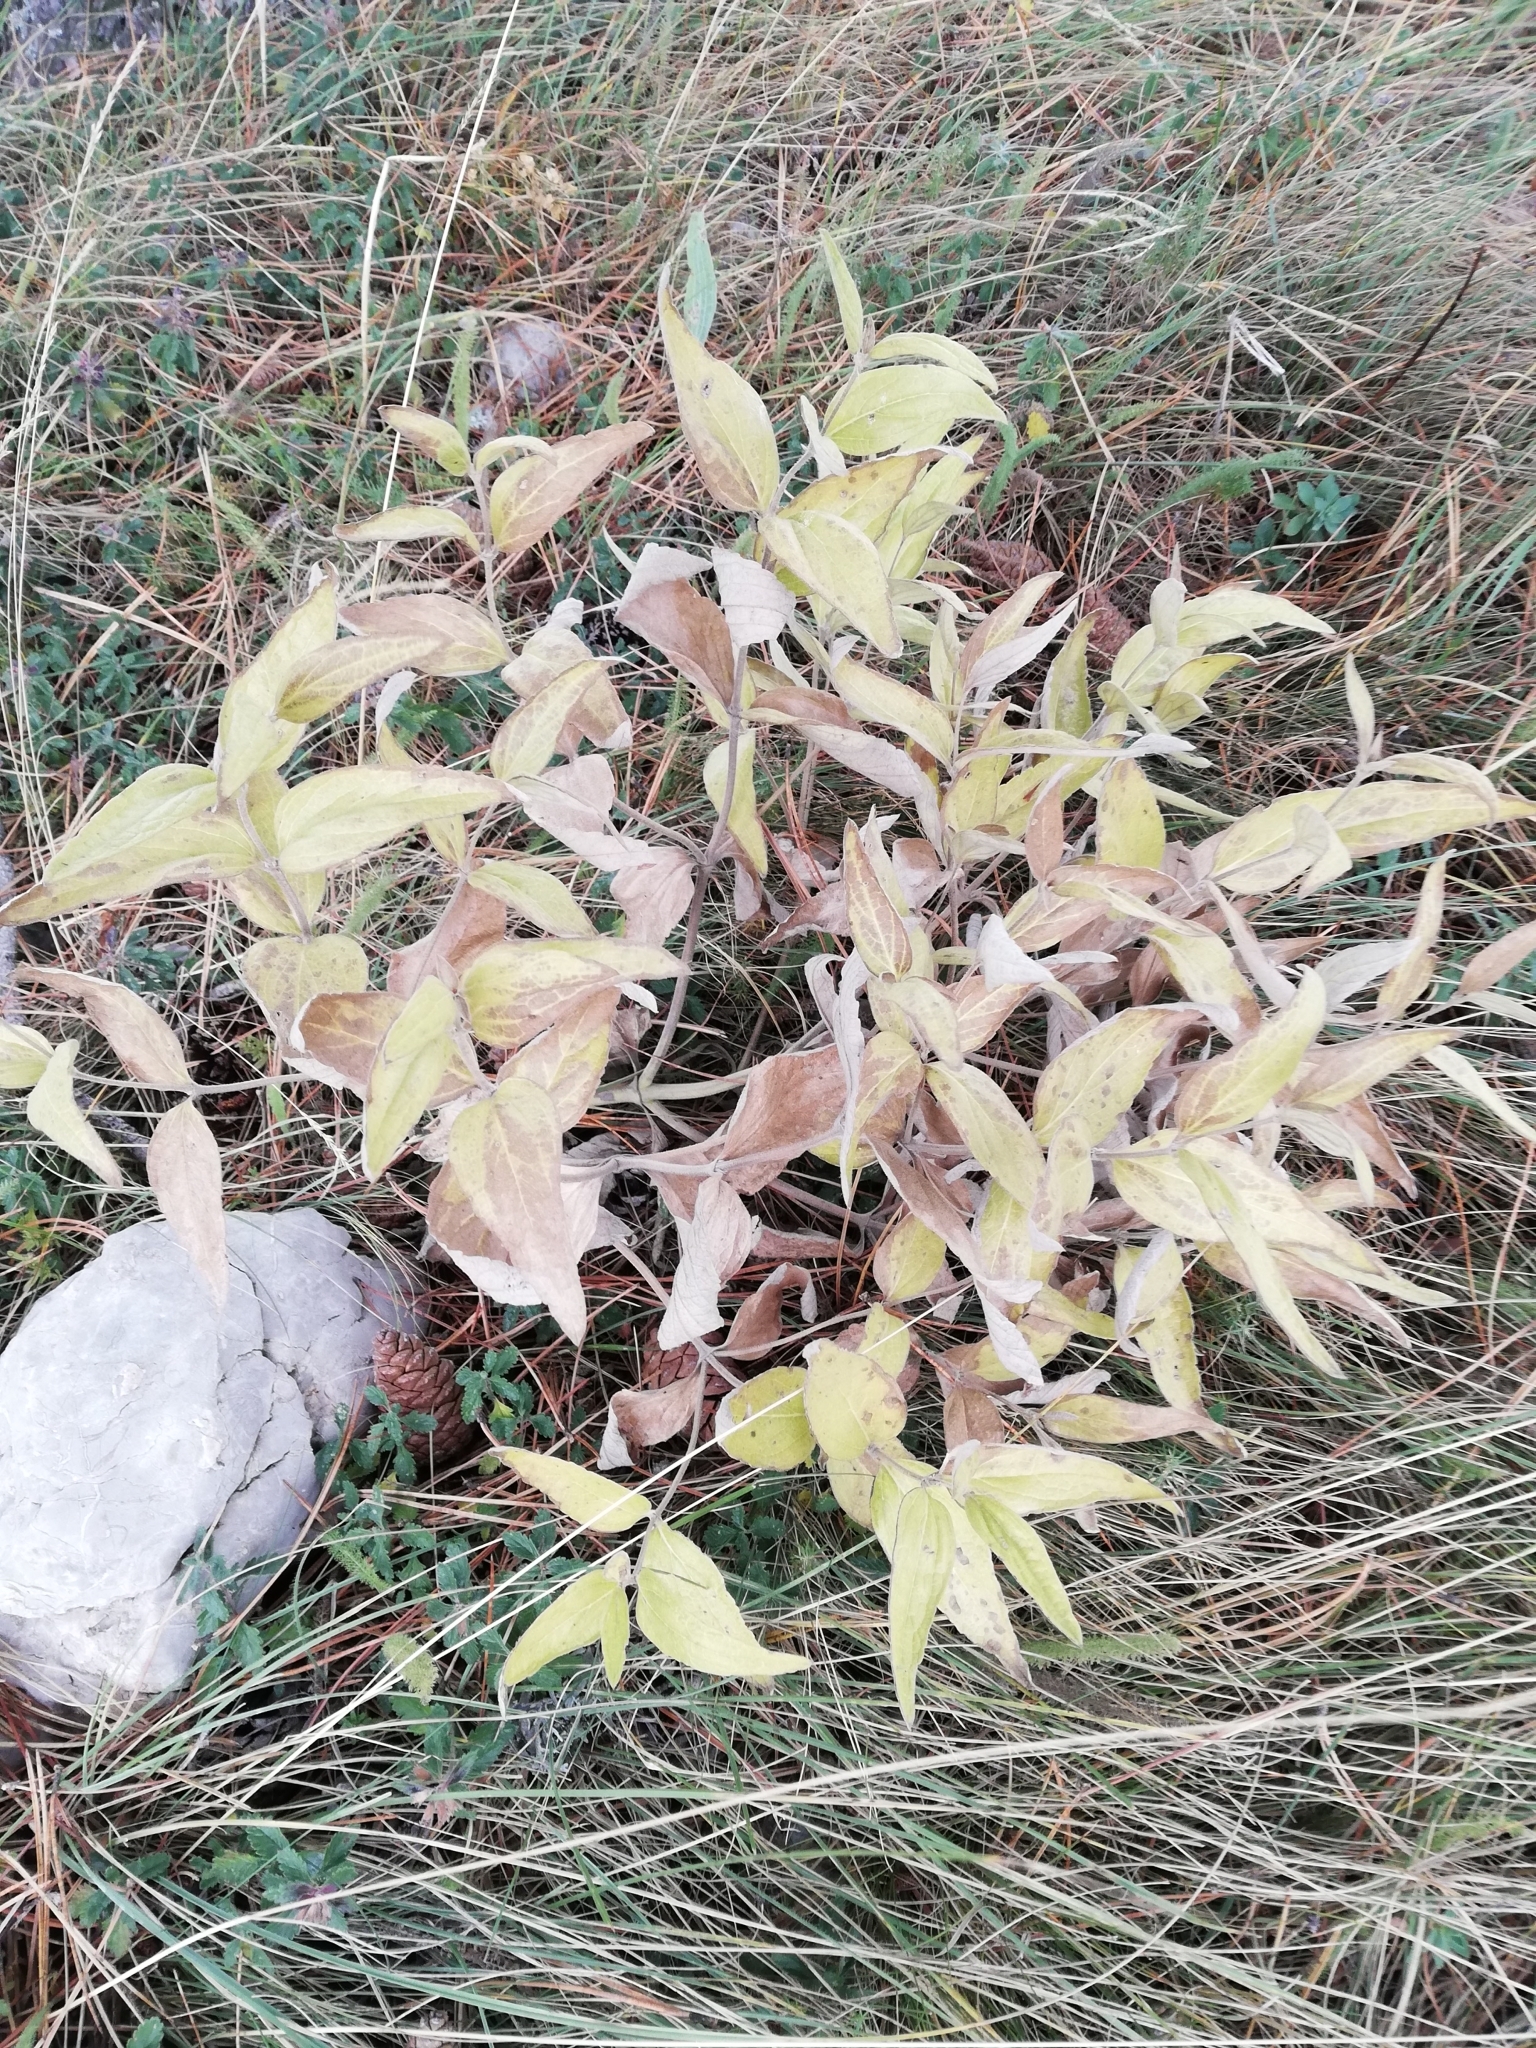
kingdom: Plantae
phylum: Tracheophyta
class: Magnoliopsida
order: Lamiales
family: Lamiaceae
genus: Phlomis
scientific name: Phlomis herba-venti
